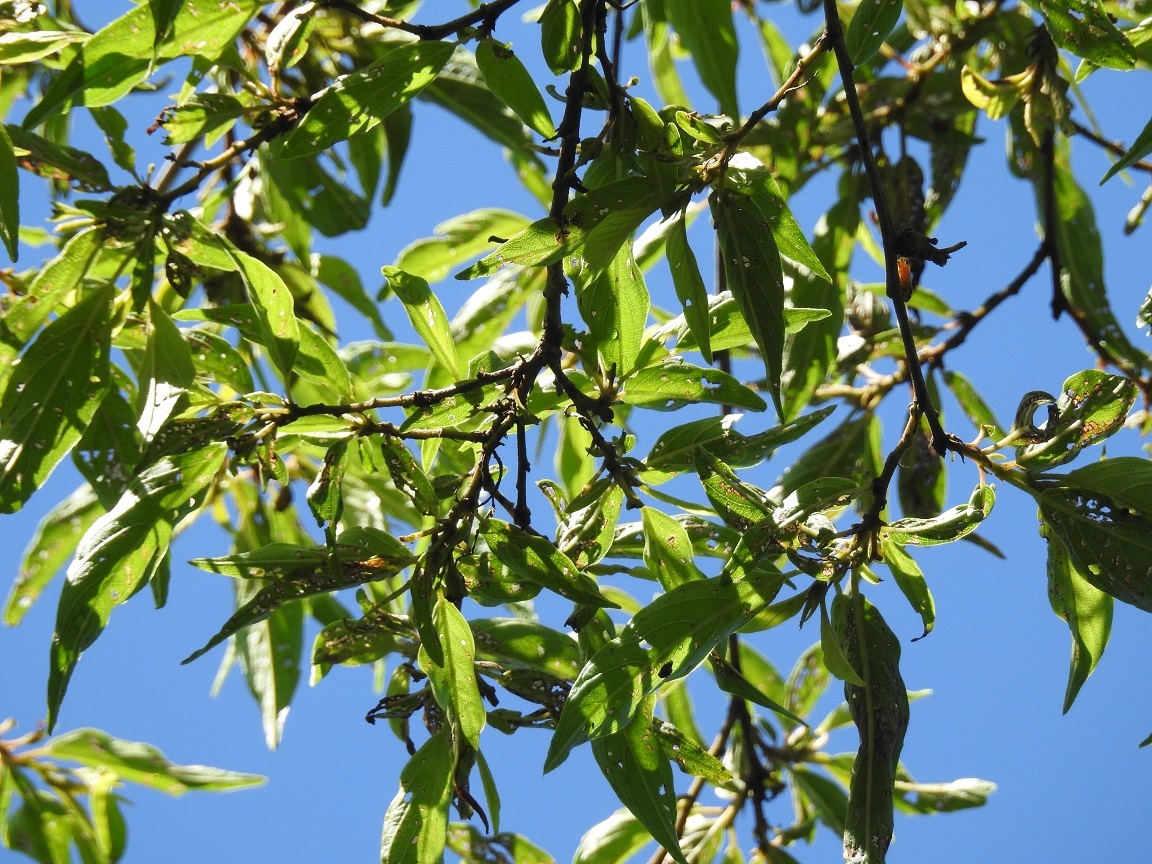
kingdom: Plantae
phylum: Tracheophyta
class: Magnoliopsida
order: Rosales
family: Urticaceae
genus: Pouzolzia
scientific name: Pouzolzia occidentalis
